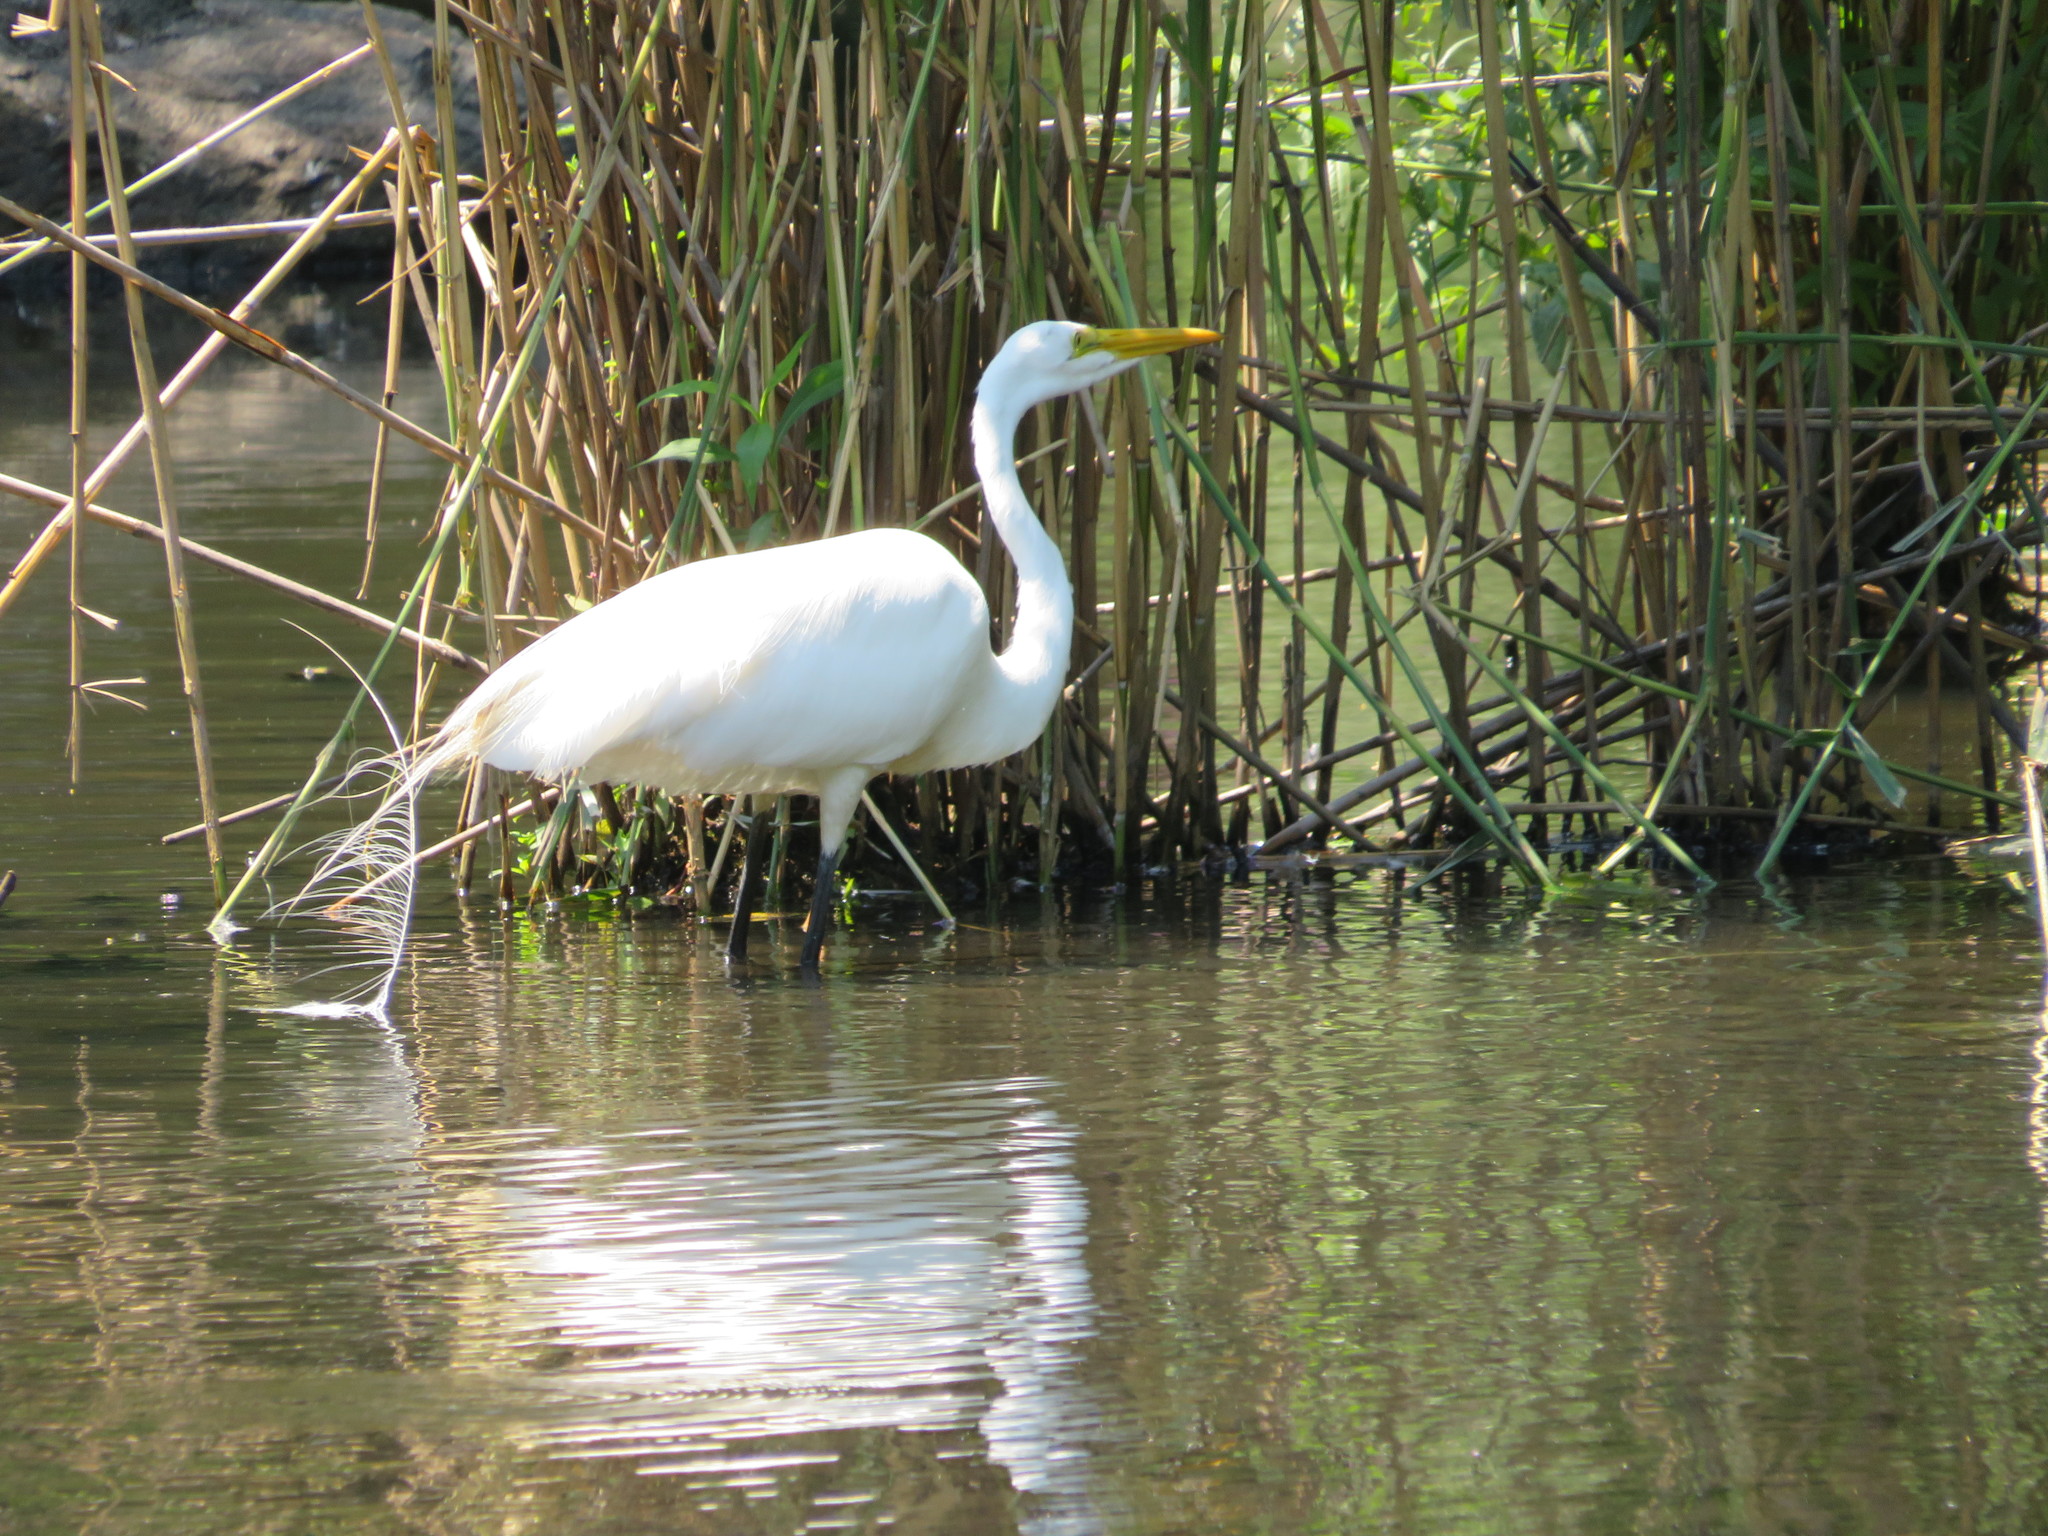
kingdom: Animalia
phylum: Chordata
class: Aves
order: Pelecaniformes
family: Ardeidae
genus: Ardea
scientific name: Ardea alba
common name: Great egret
